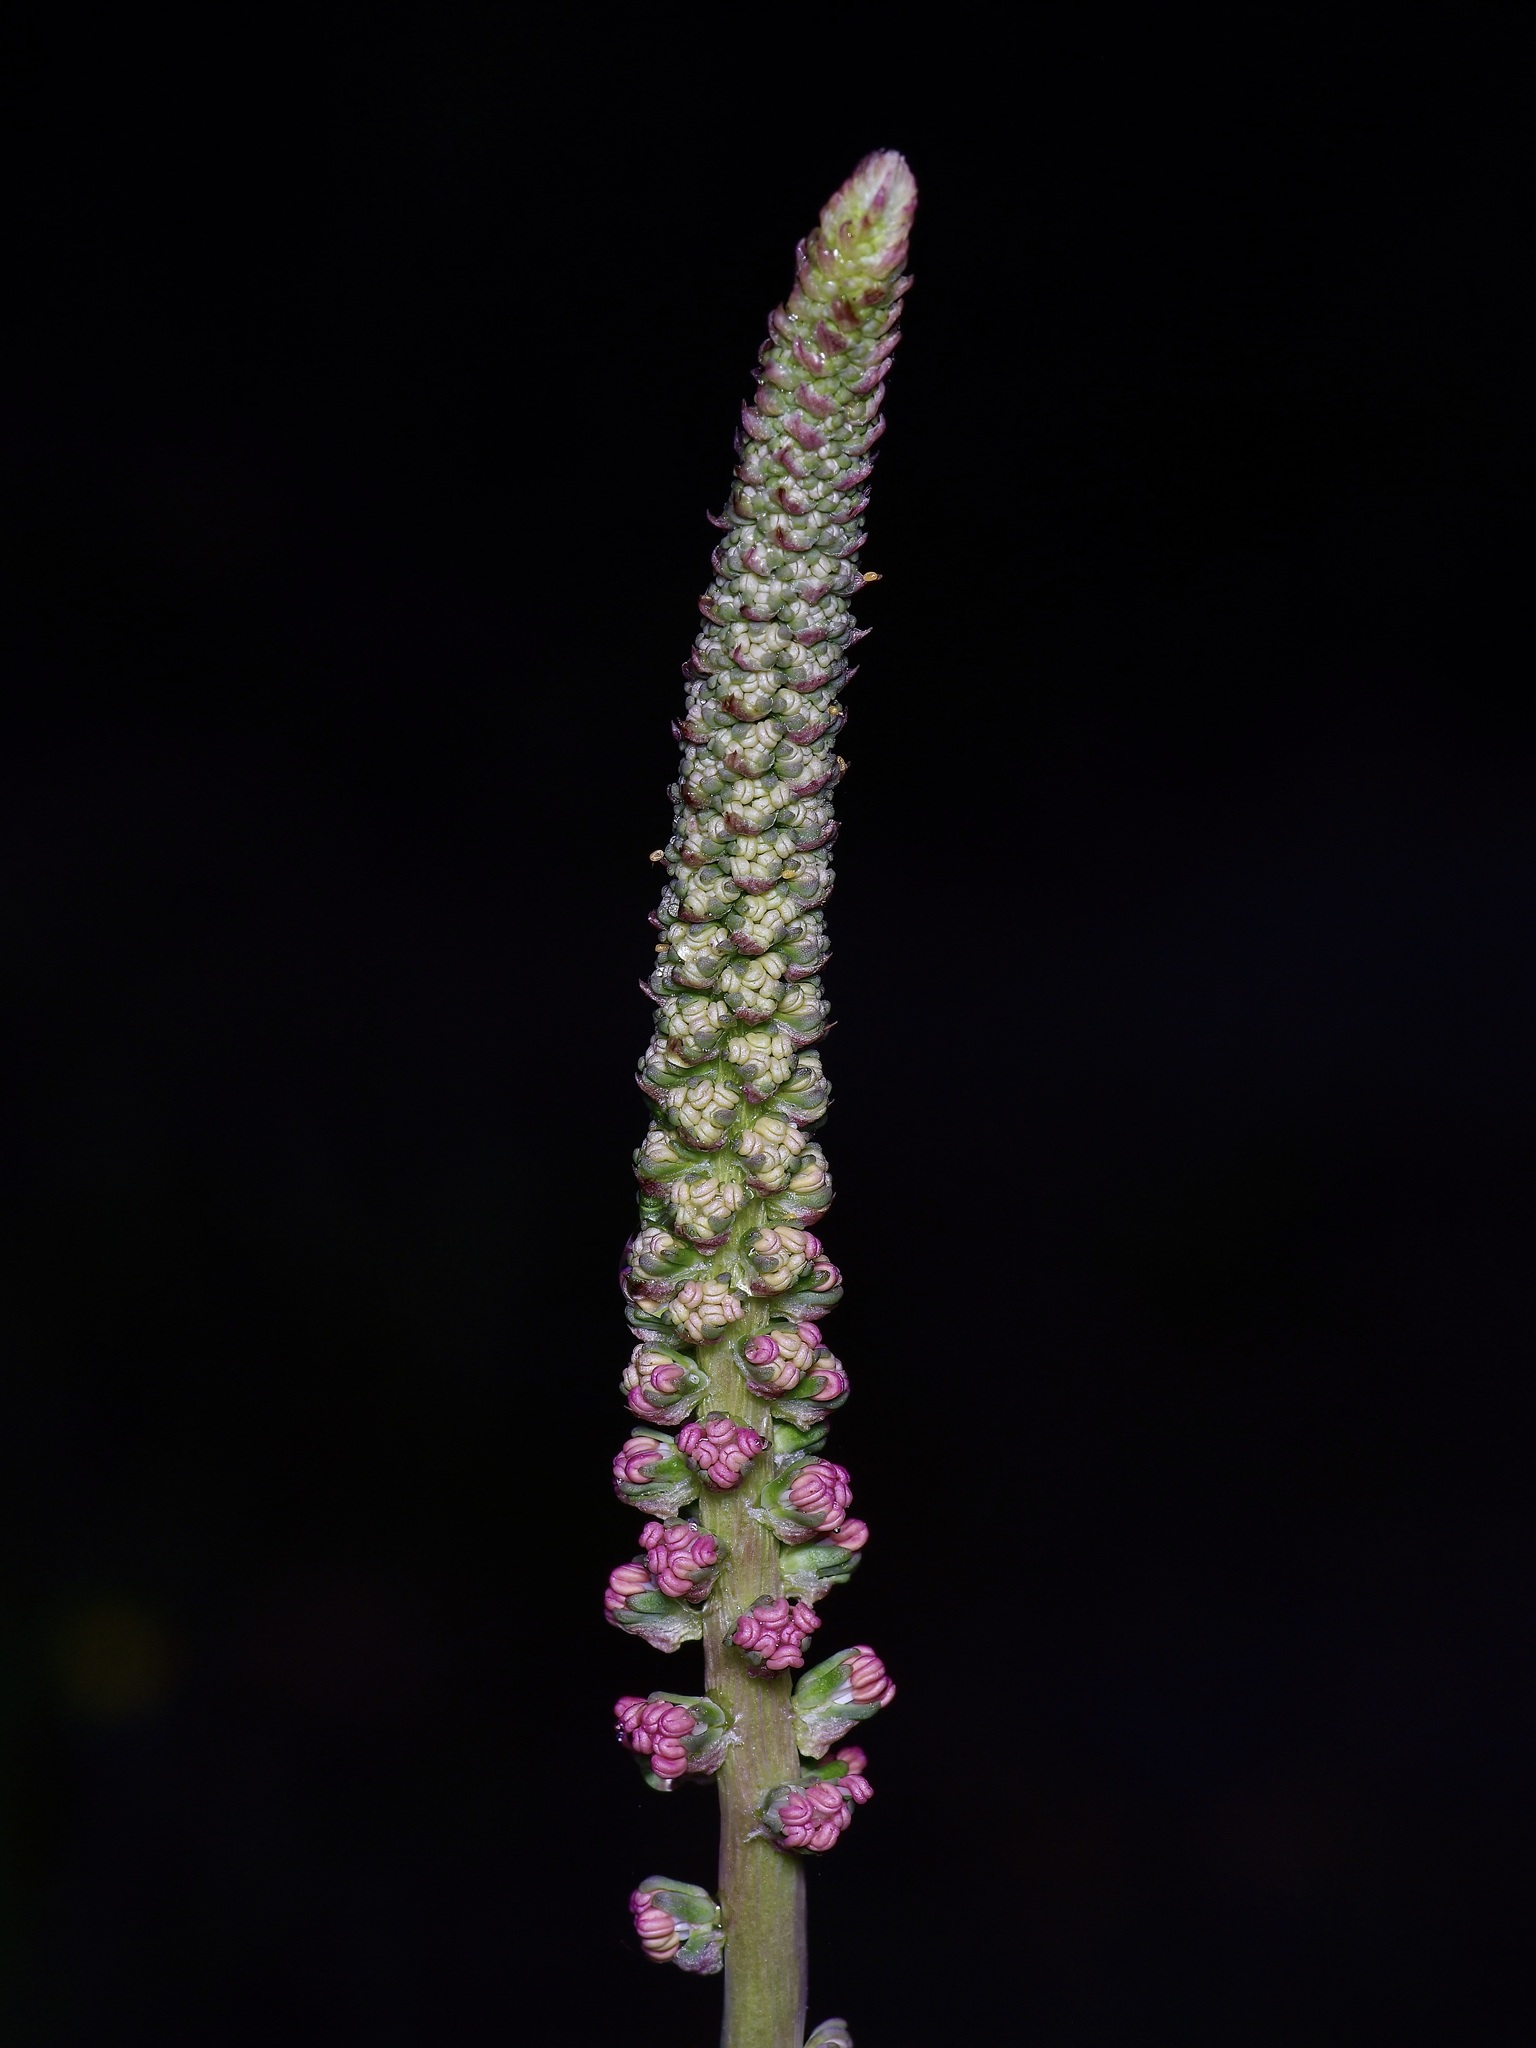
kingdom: Plantae
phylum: Tracheophyta
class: Liliopsida
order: Liliales
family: Melanthiaceae
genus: Schoenocaulon
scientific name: Schoenocaulon texanum
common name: Texas feather-shank
